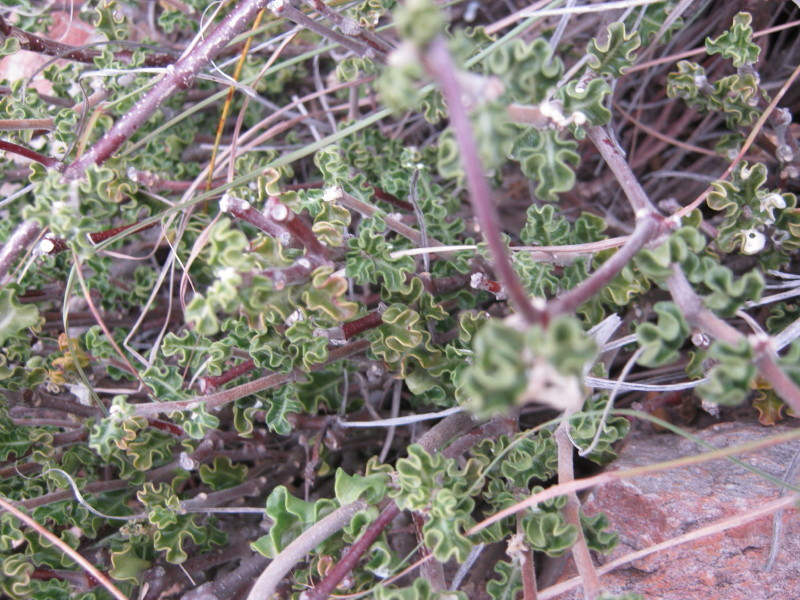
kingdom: Plantae
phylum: Tracheophyta
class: Magnoliopsida
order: Gentianales
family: Apocynaceae
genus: Fockea
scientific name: Fockea capensis
